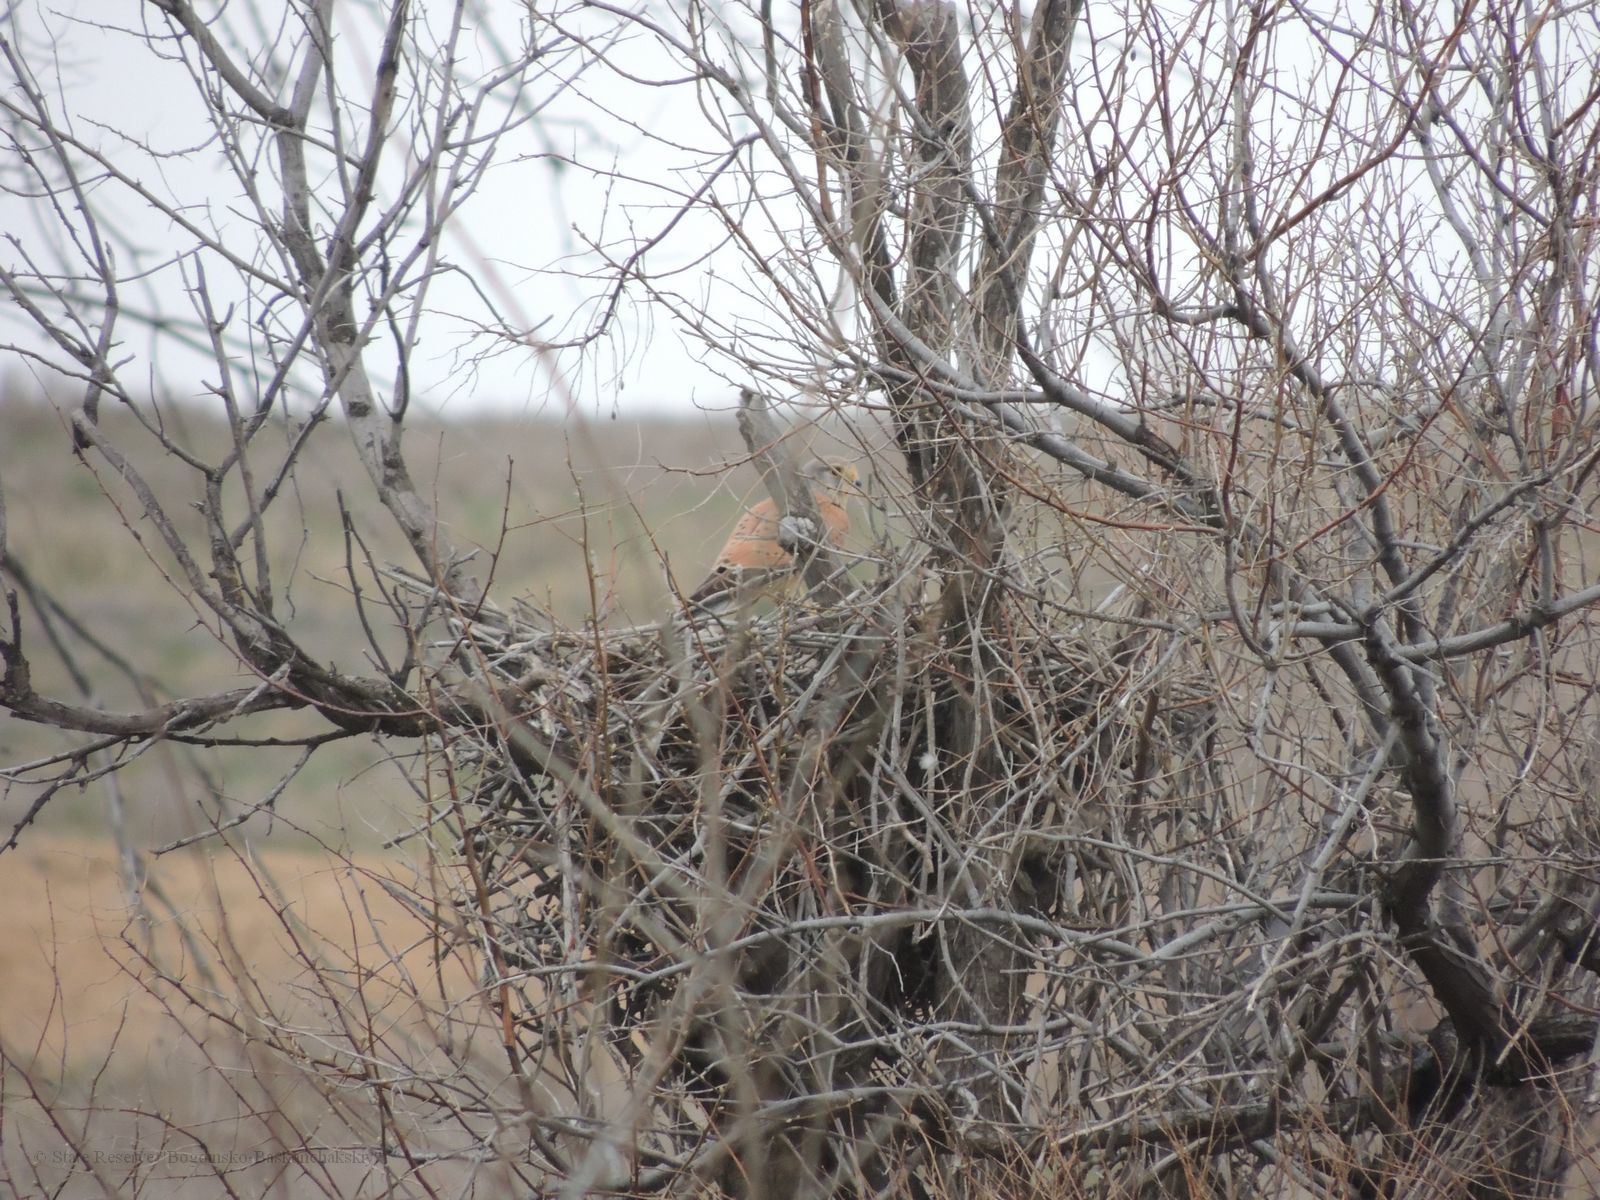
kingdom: Animalia
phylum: Chordata
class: Aves
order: Falconiformes
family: Falconidae
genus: Falco
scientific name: Falco tinnunculus
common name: Common kestrel
